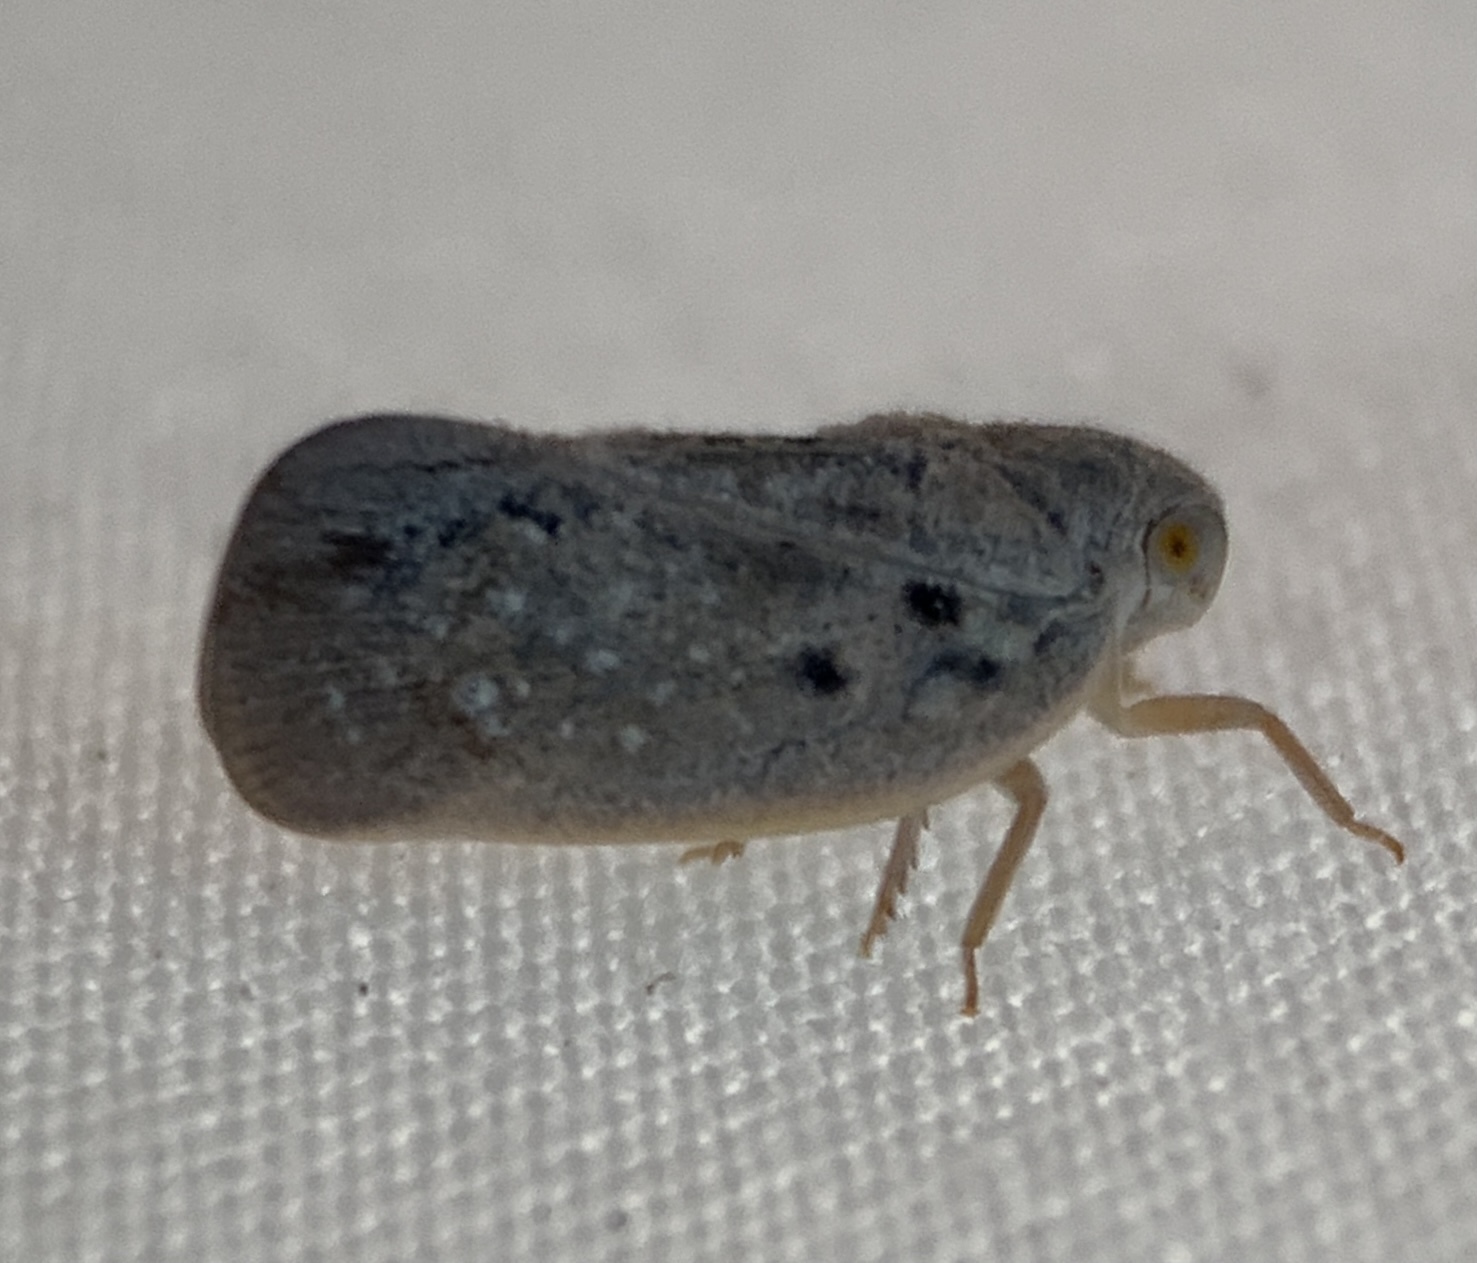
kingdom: Animalia
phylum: Arthropoda
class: Insecta
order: Hemiptera
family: Flatidae
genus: Metcalfa
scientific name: Metcalfa pruinosa
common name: Citrus flatid planthopper
